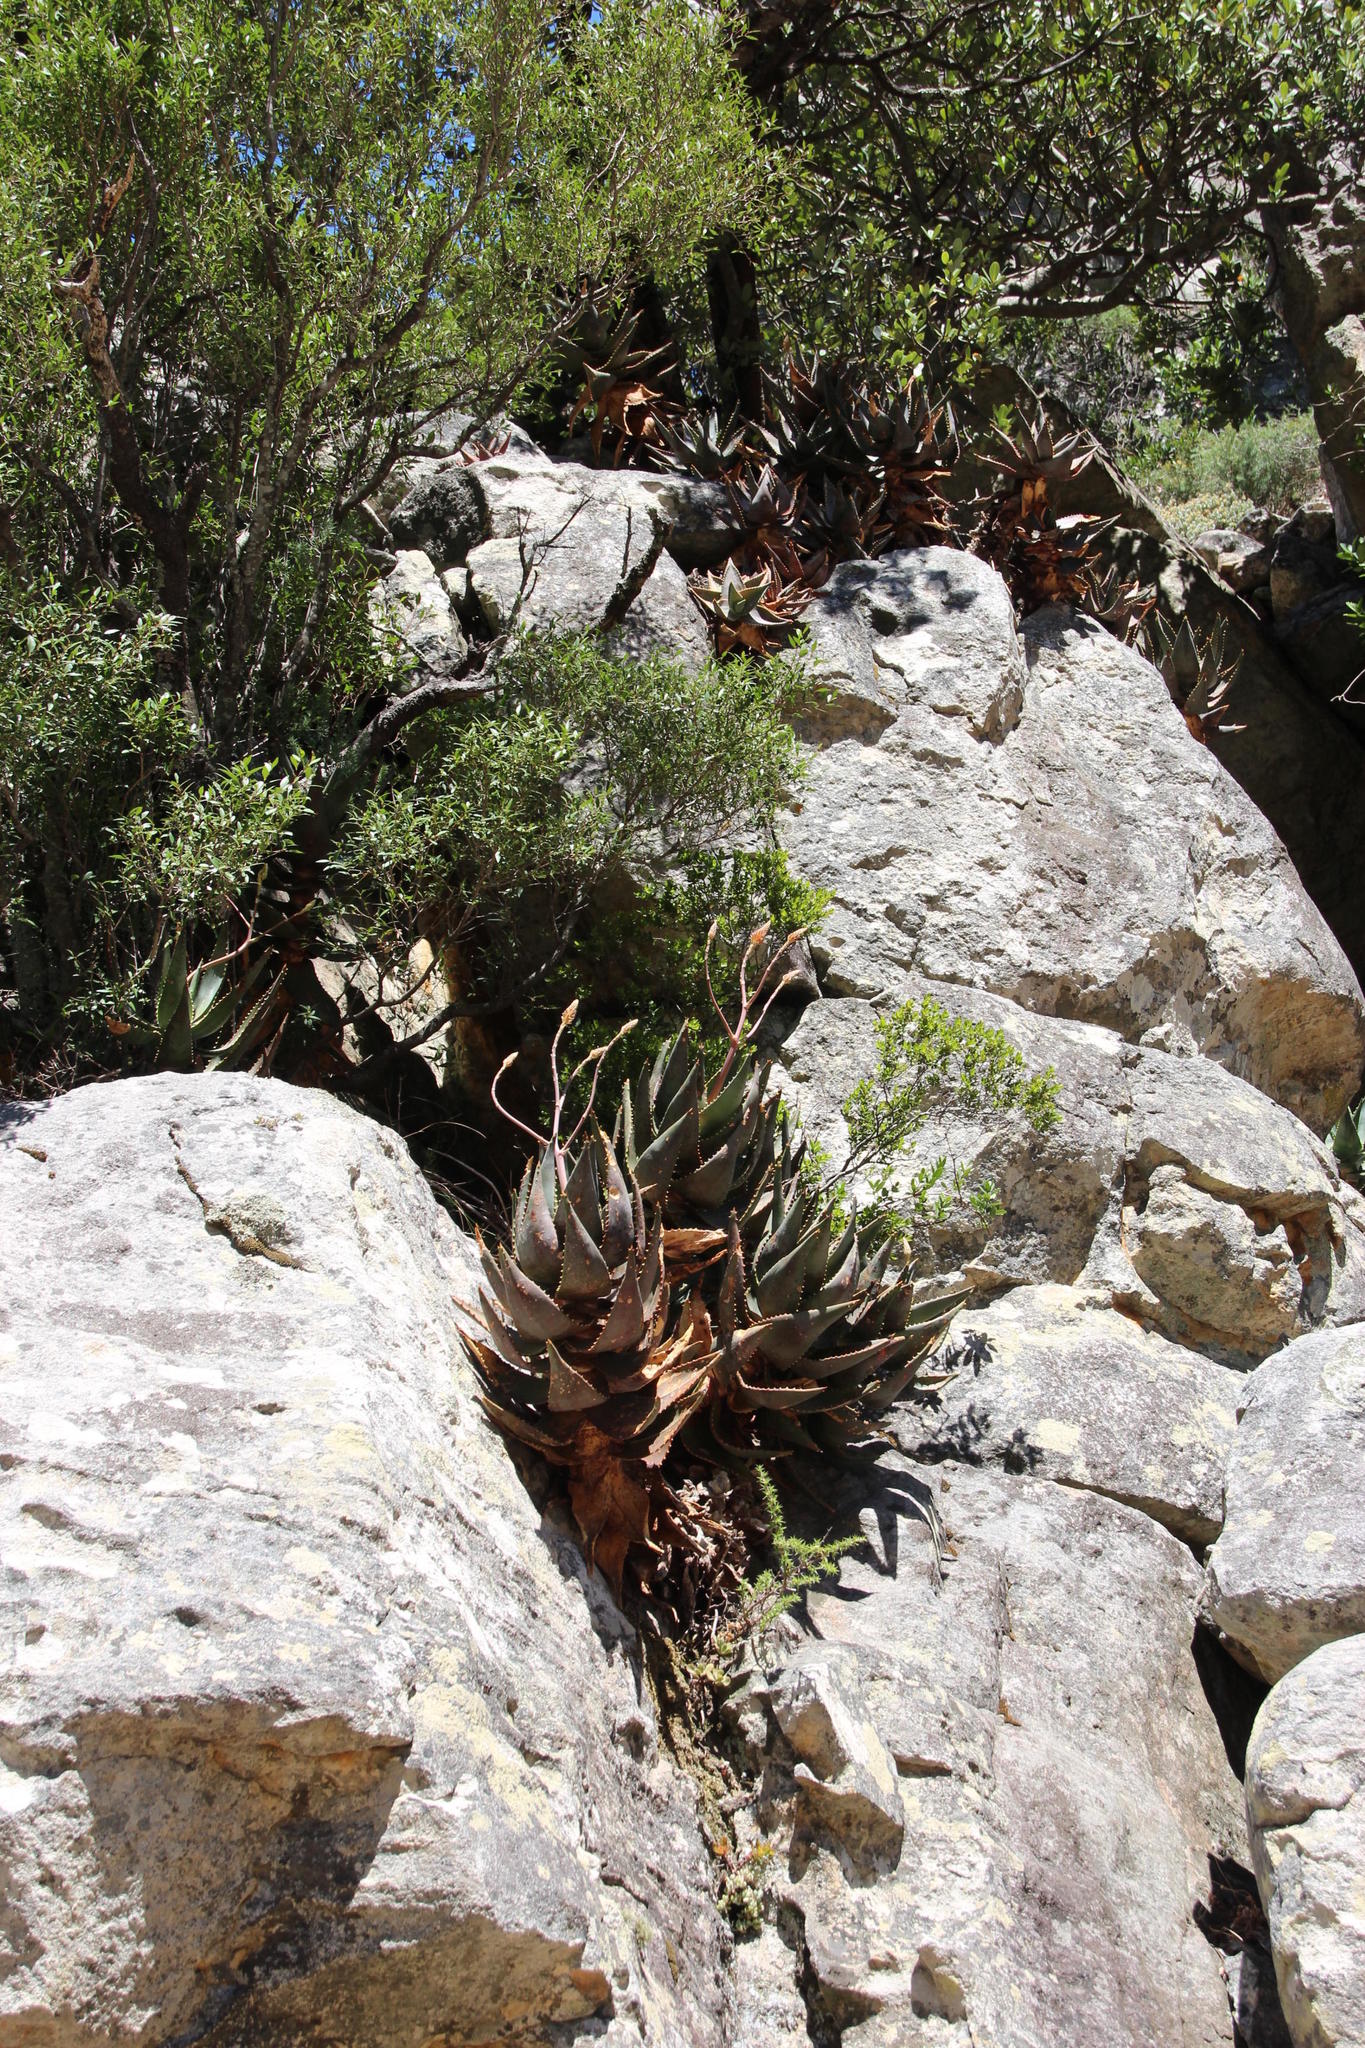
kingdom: Plantae
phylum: Tracheophyta
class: Liliopsida
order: Asparagales
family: Asphodelaceae
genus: Aloe
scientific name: Aloe perfoliata
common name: Mitra aloe
